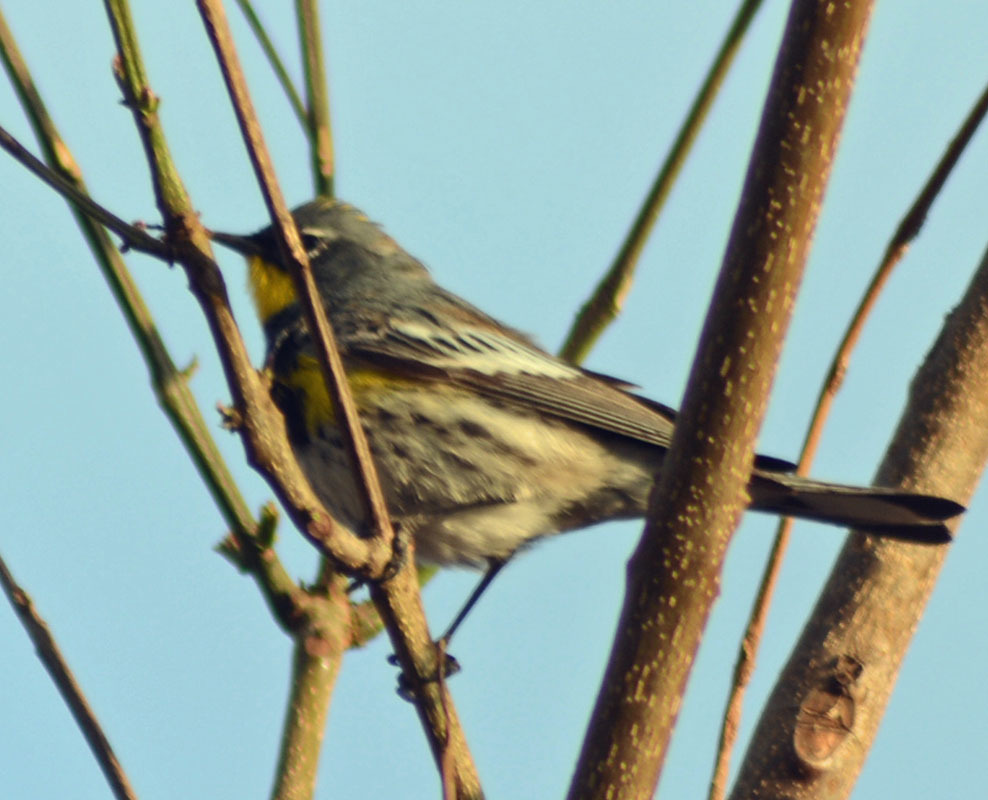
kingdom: Animalia
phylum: Chordata
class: Aves
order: Passeriformes
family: Parulidae
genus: Setophaga
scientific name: Setophaga auduboni
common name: Audubon's warbler
